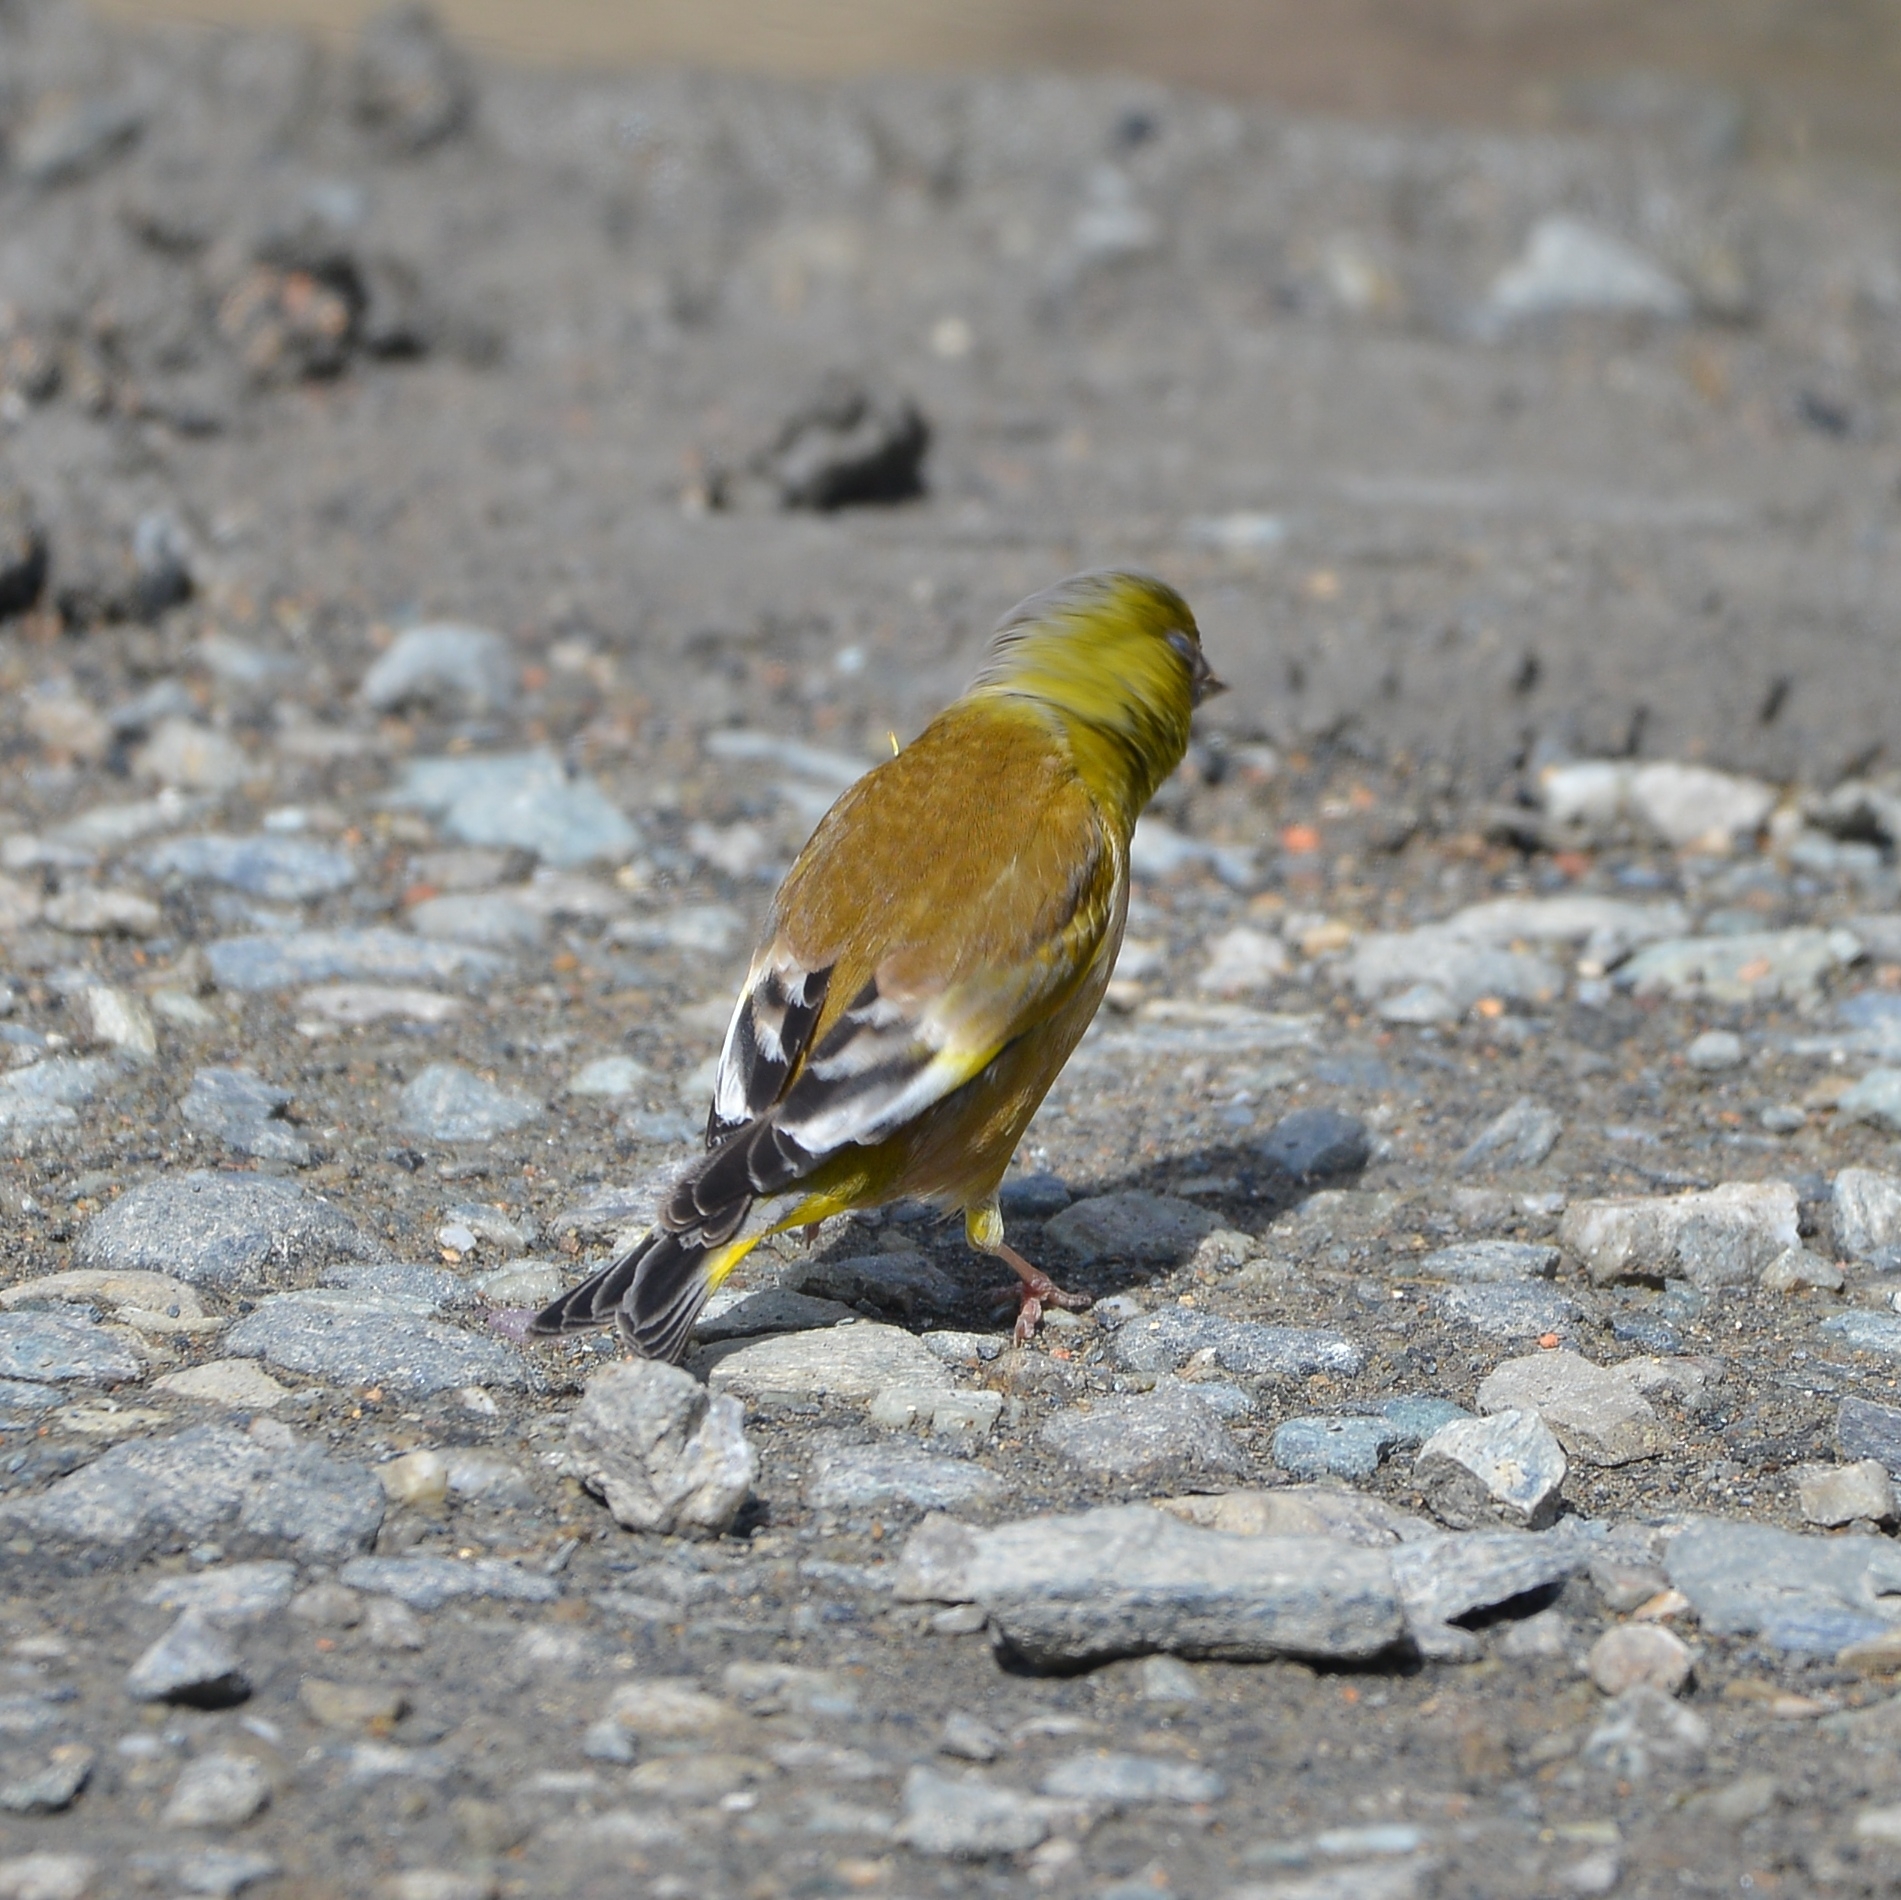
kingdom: Plantae
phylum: Tracheophyta
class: Liliopsida
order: Poales
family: Poaceae
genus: Chloris
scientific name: Chloris sinica
